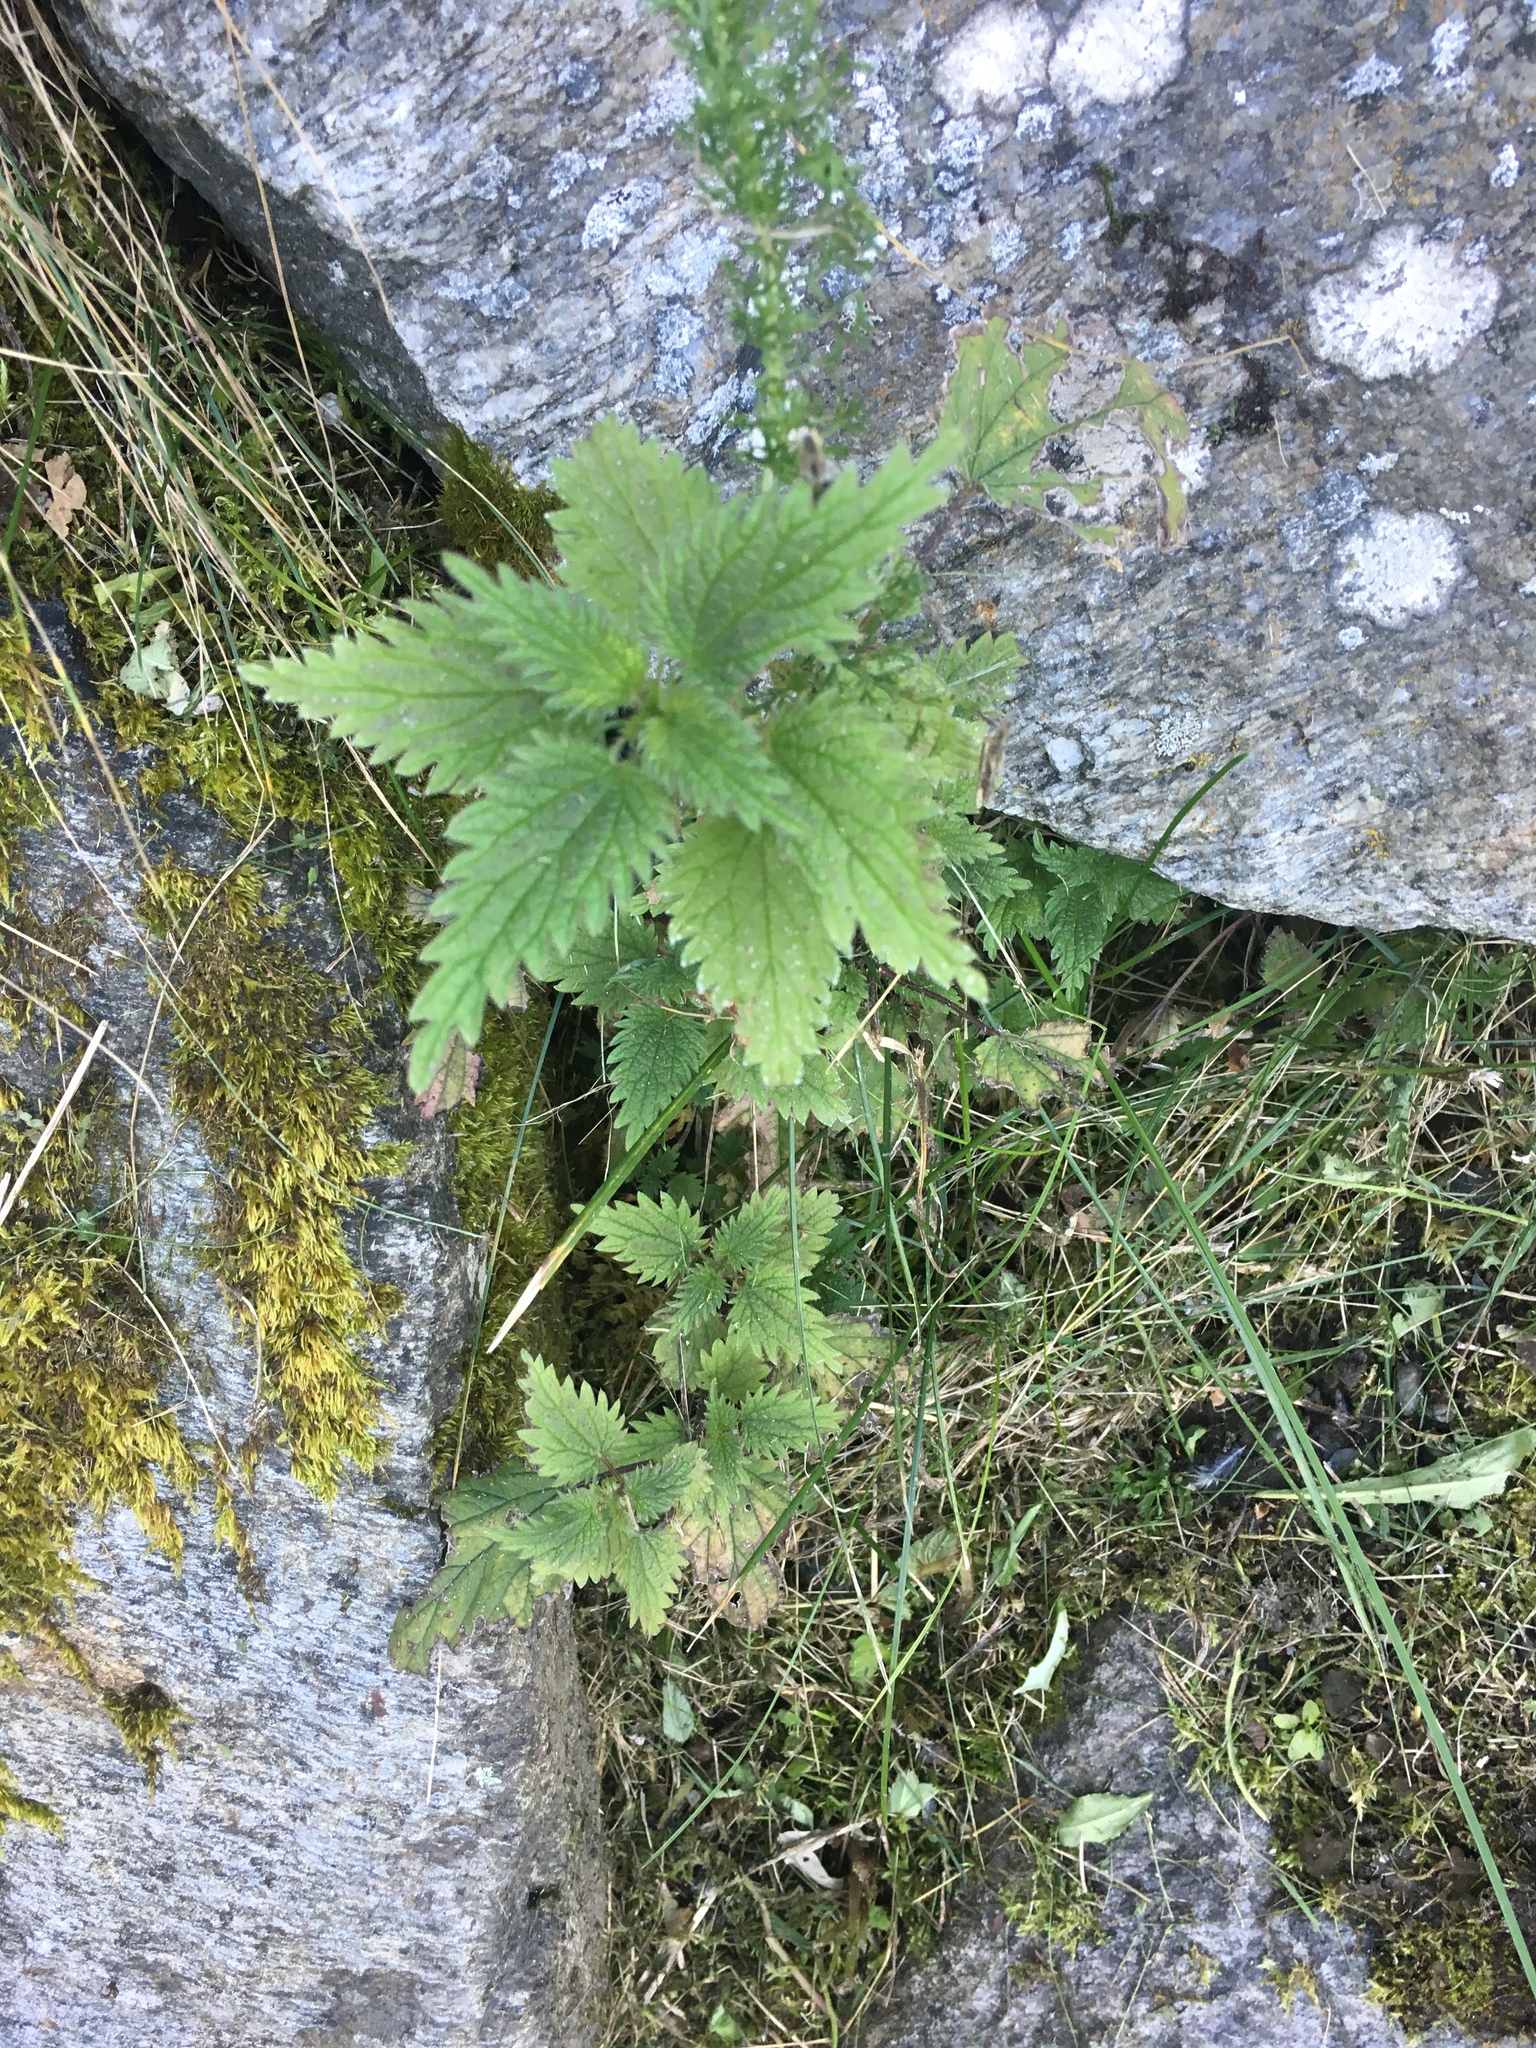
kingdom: Plantae
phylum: Tracheophyta
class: Magnoliopsida
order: Rosales
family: Urticaceae
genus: Urtica
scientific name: Urtica dioica
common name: Common nettle
